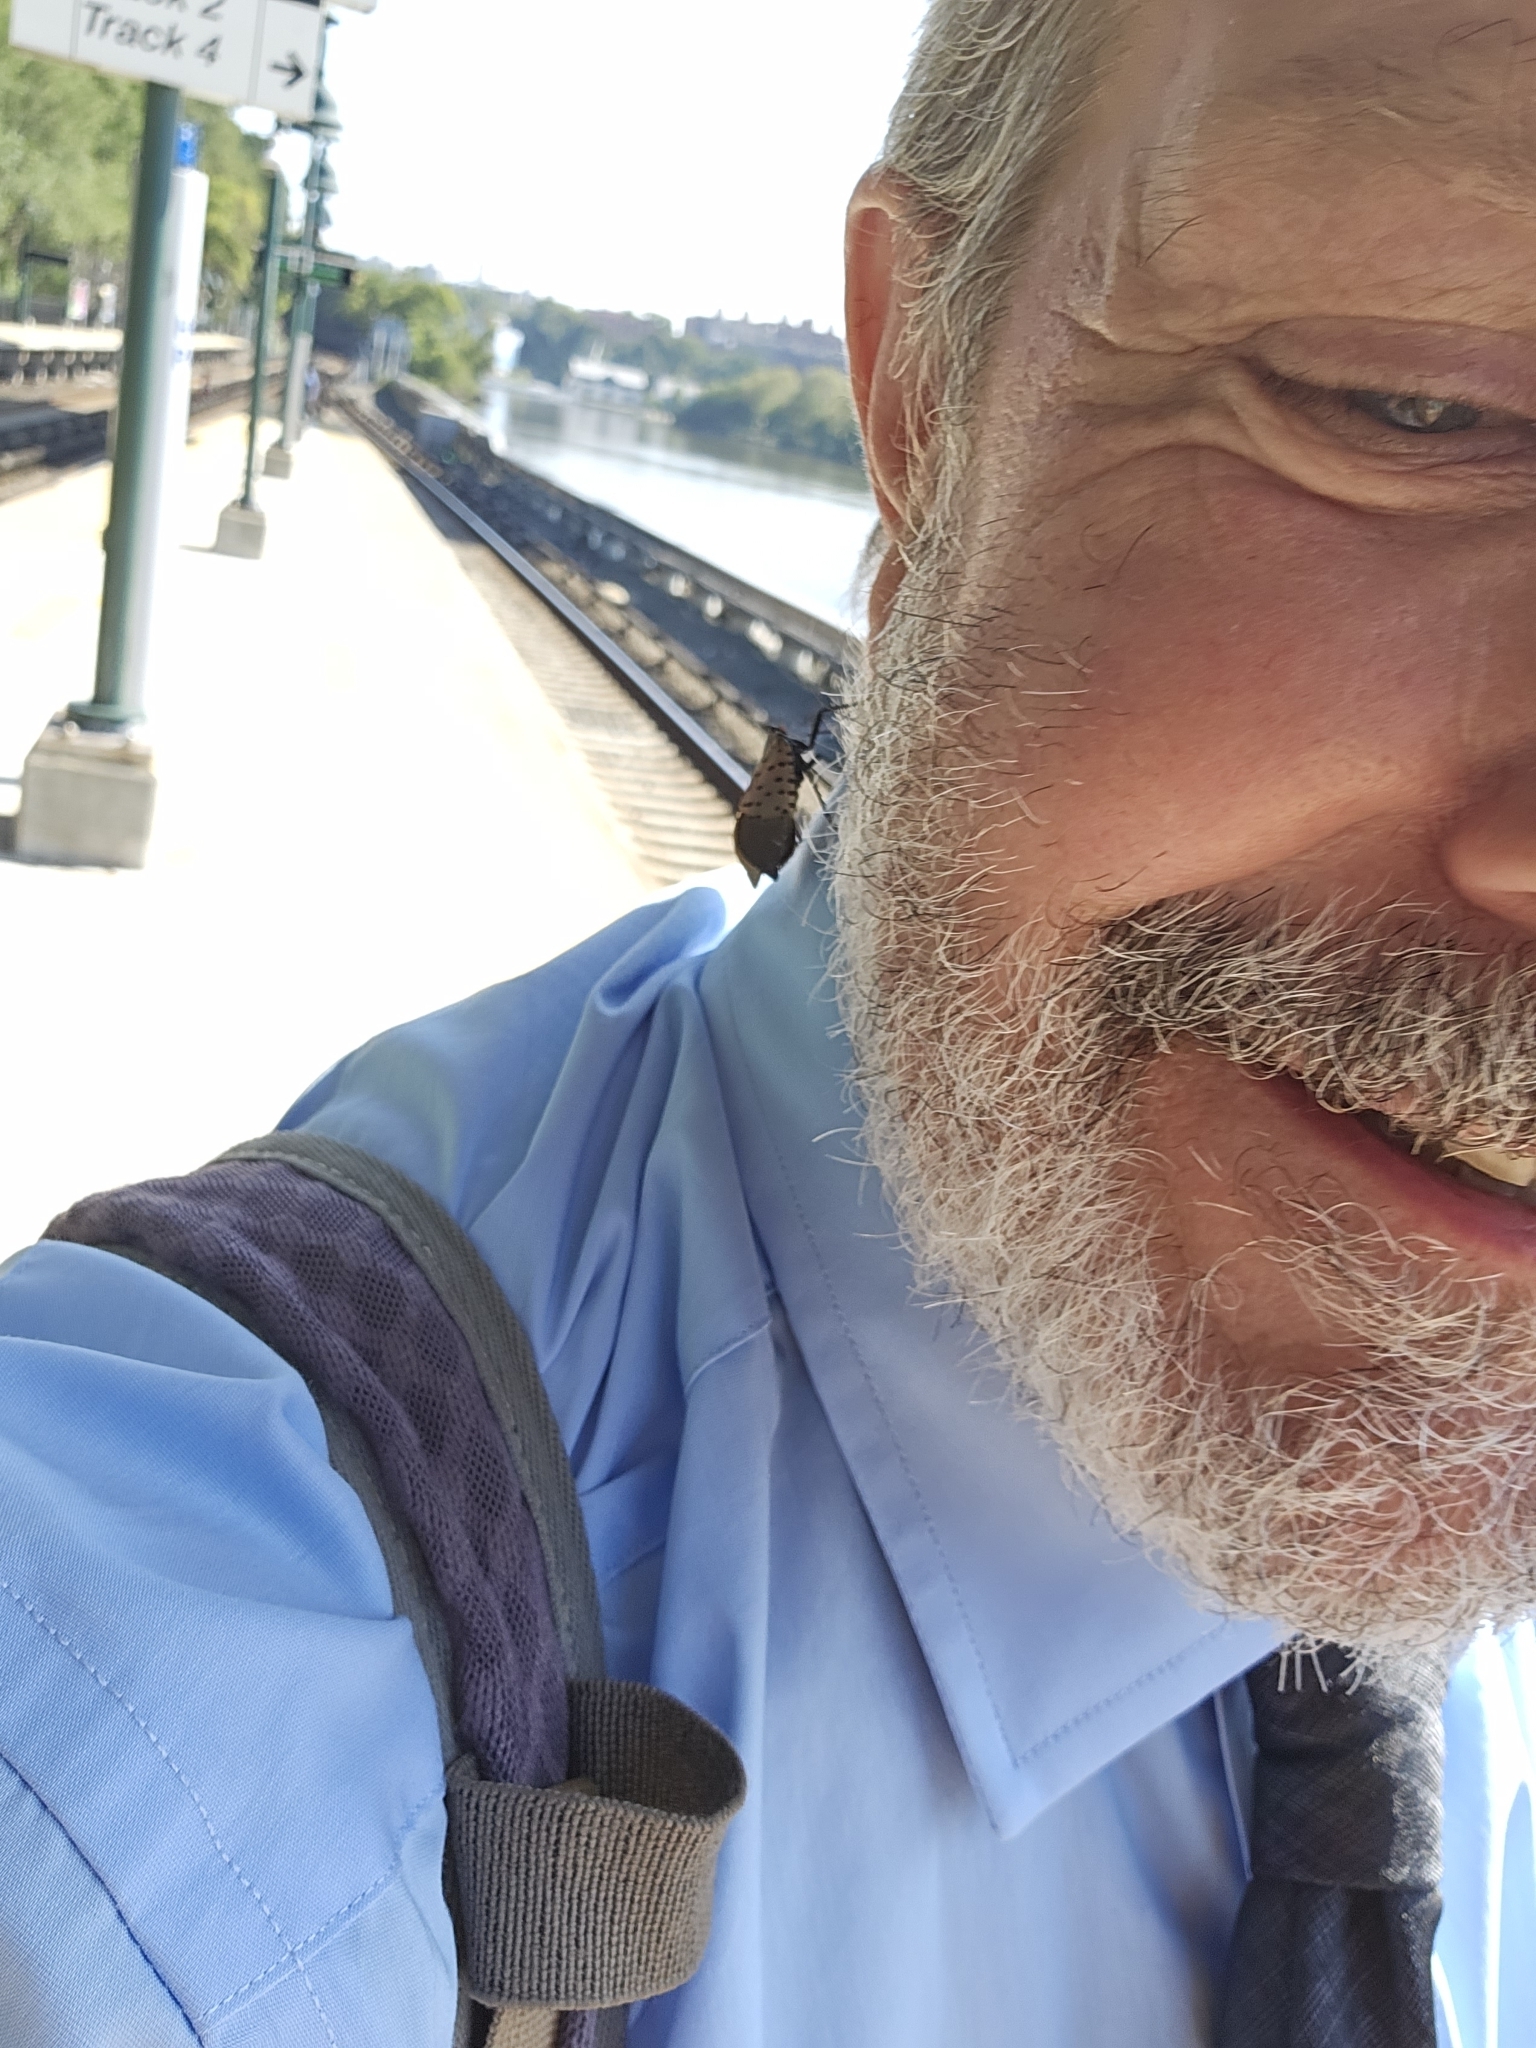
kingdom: Animalia
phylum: Arthropoda
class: Insecta
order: Hemiptera
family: Fulgoridae
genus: Lycorma
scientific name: Lycorma delicatula
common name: Spotted lanternfly
